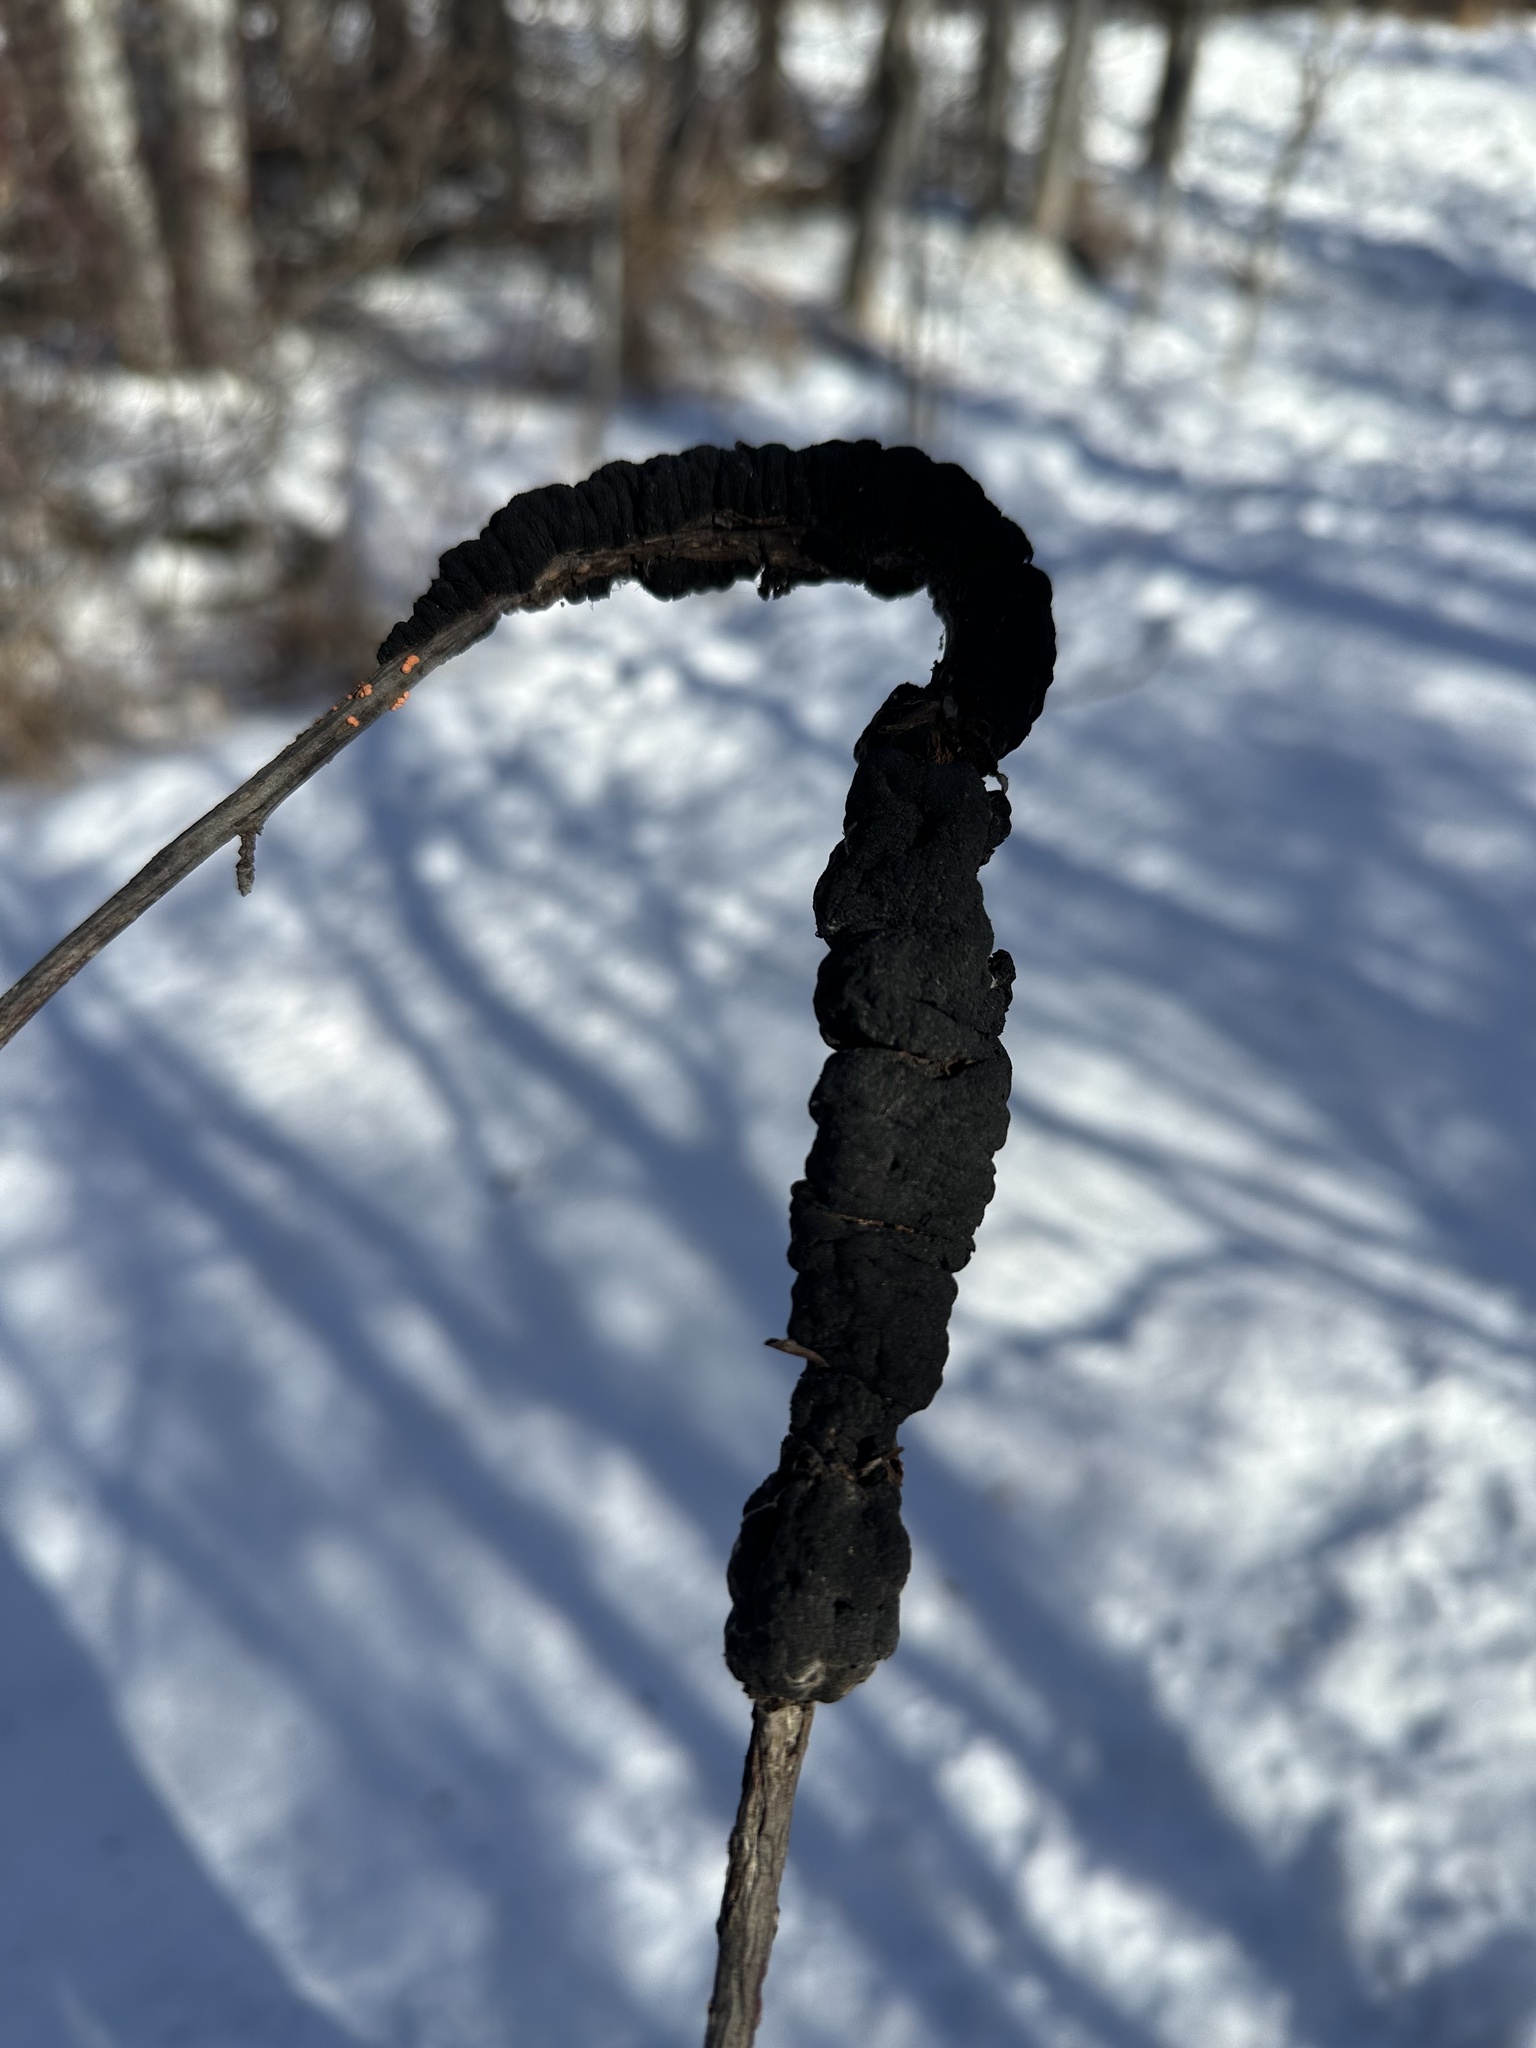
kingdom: Fungi
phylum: Ascomycota
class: Dothideomycetes
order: Venturiales
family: Venturiaceae
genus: Apiosporina
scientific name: Apiosporina morbosa
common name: Black knot
